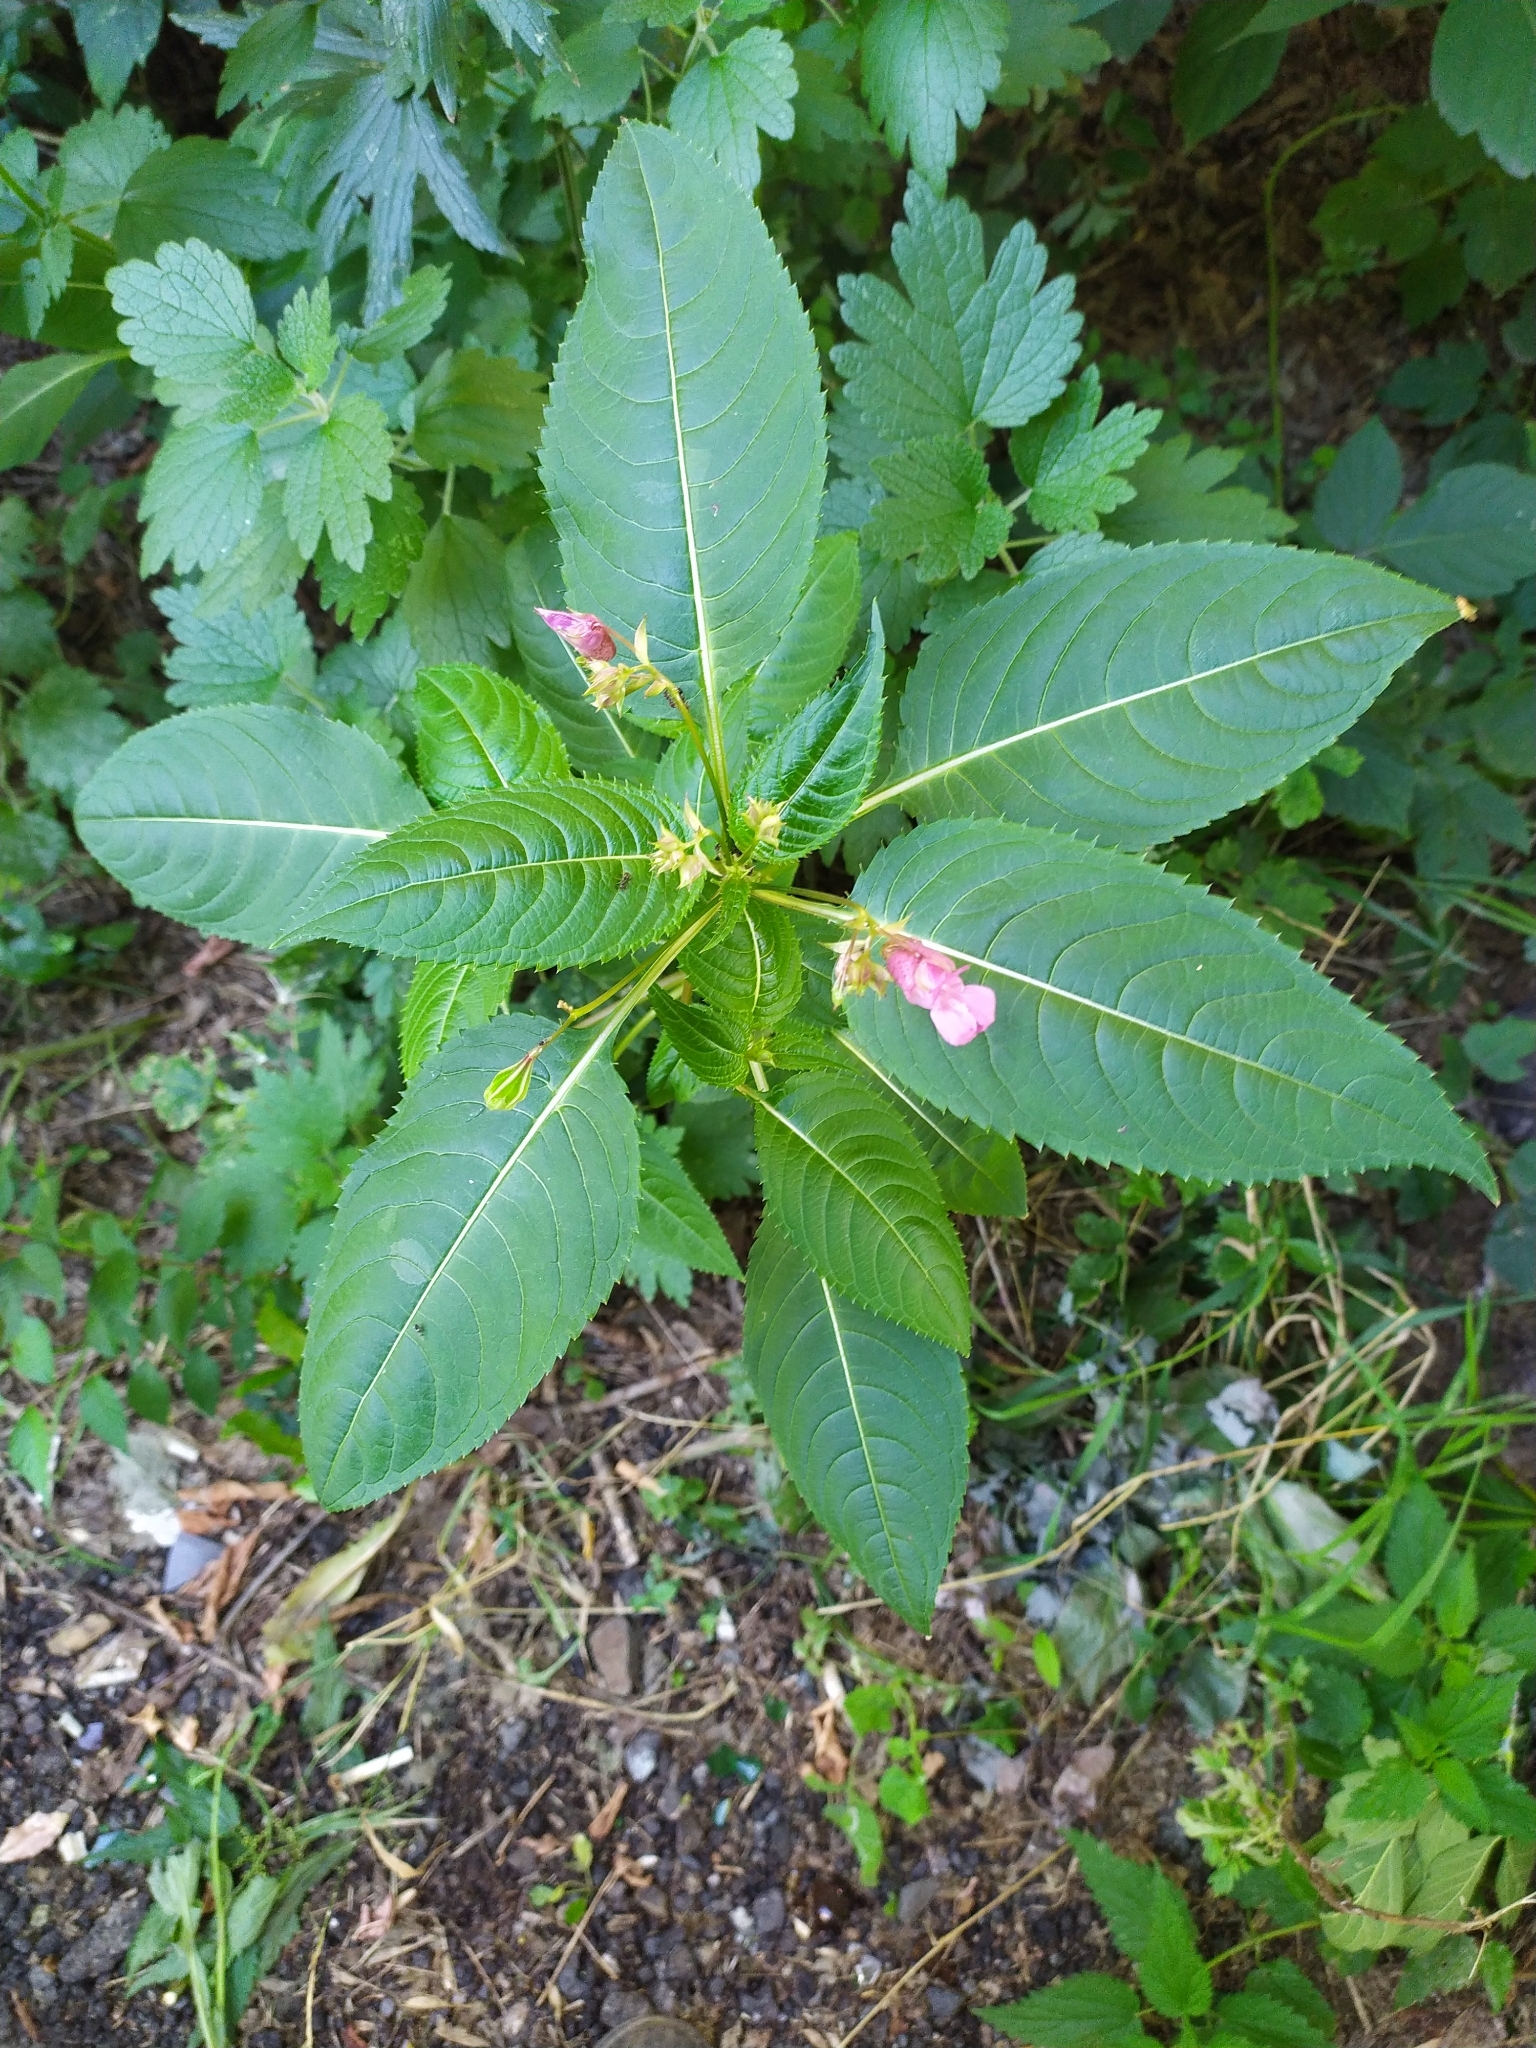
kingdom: Plantae
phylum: Tracheophyta
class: Magnoliopsida
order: Ericales
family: Balsaminaceae
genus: Impatiens
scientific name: Impatiens glandulifera
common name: Himalayan balsam
